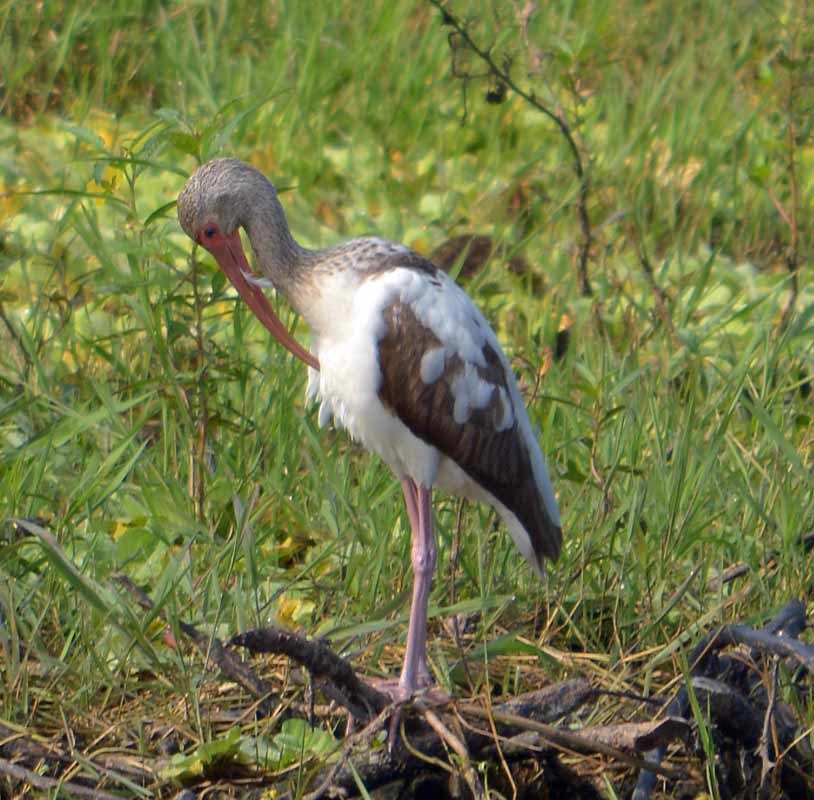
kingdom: Animalia
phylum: Chordata
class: Aves
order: Pelecaniformes
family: Threskiornithidae
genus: Eudocimus
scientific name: Eudocimus albus
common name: White ibis
